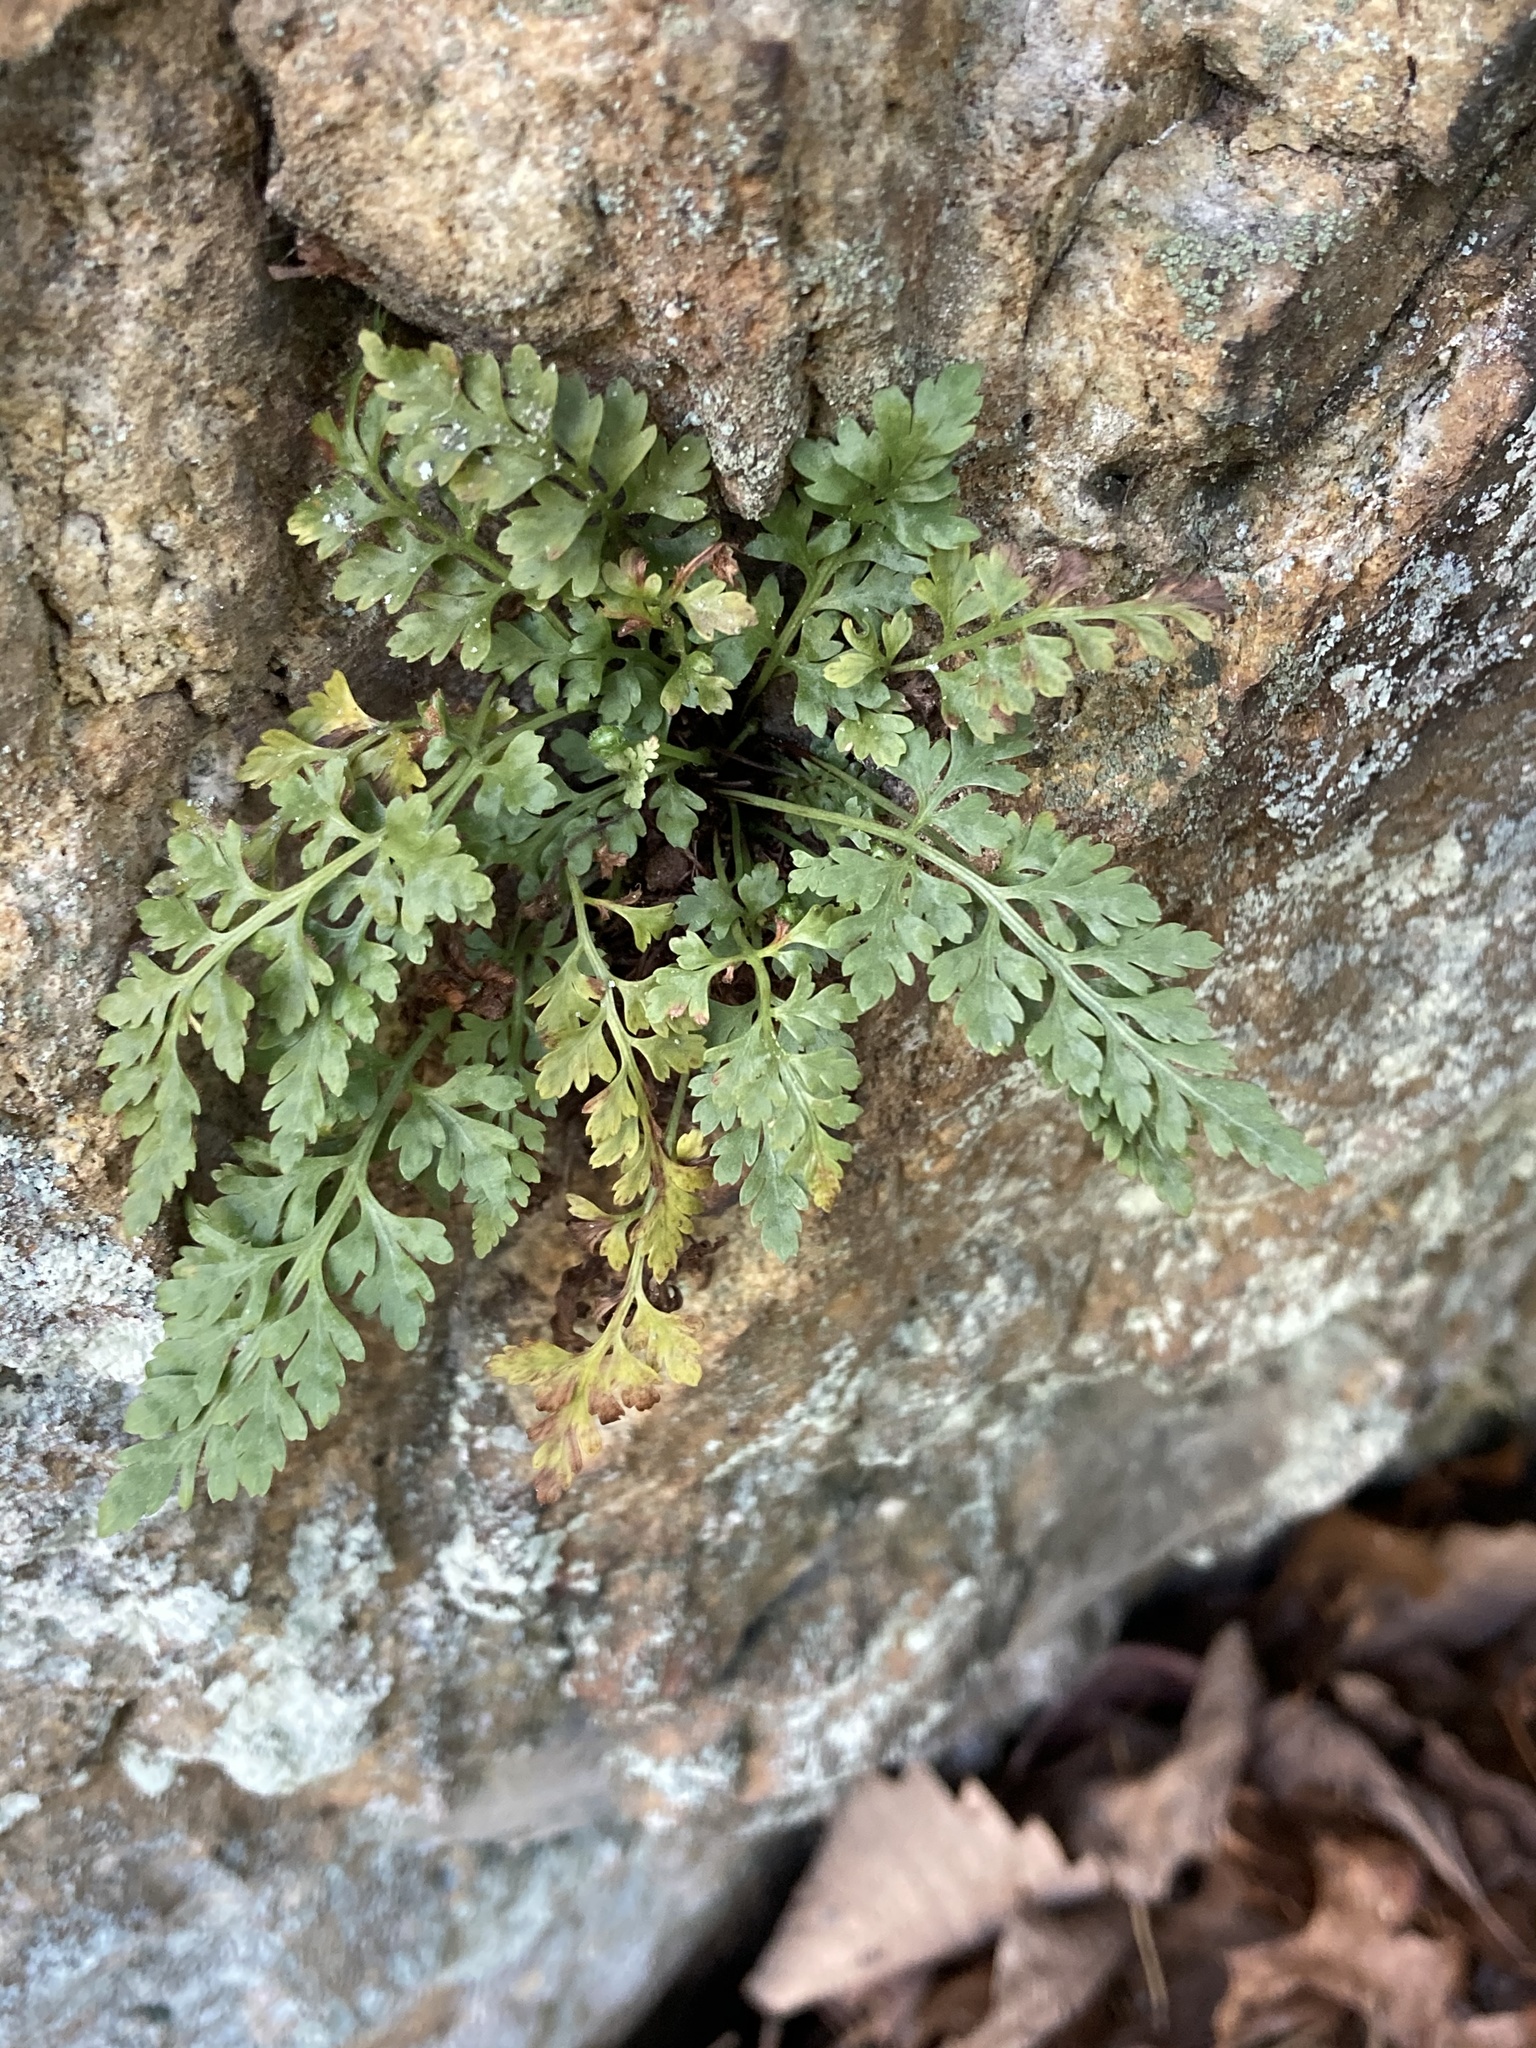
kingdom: Plantae
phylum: Tracheophyta
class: Polypodiopsida
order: Polypodiales
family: Aspleniaceae
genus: Asplenium
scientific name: Asplenium montanum
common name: Mountain spleenwort
